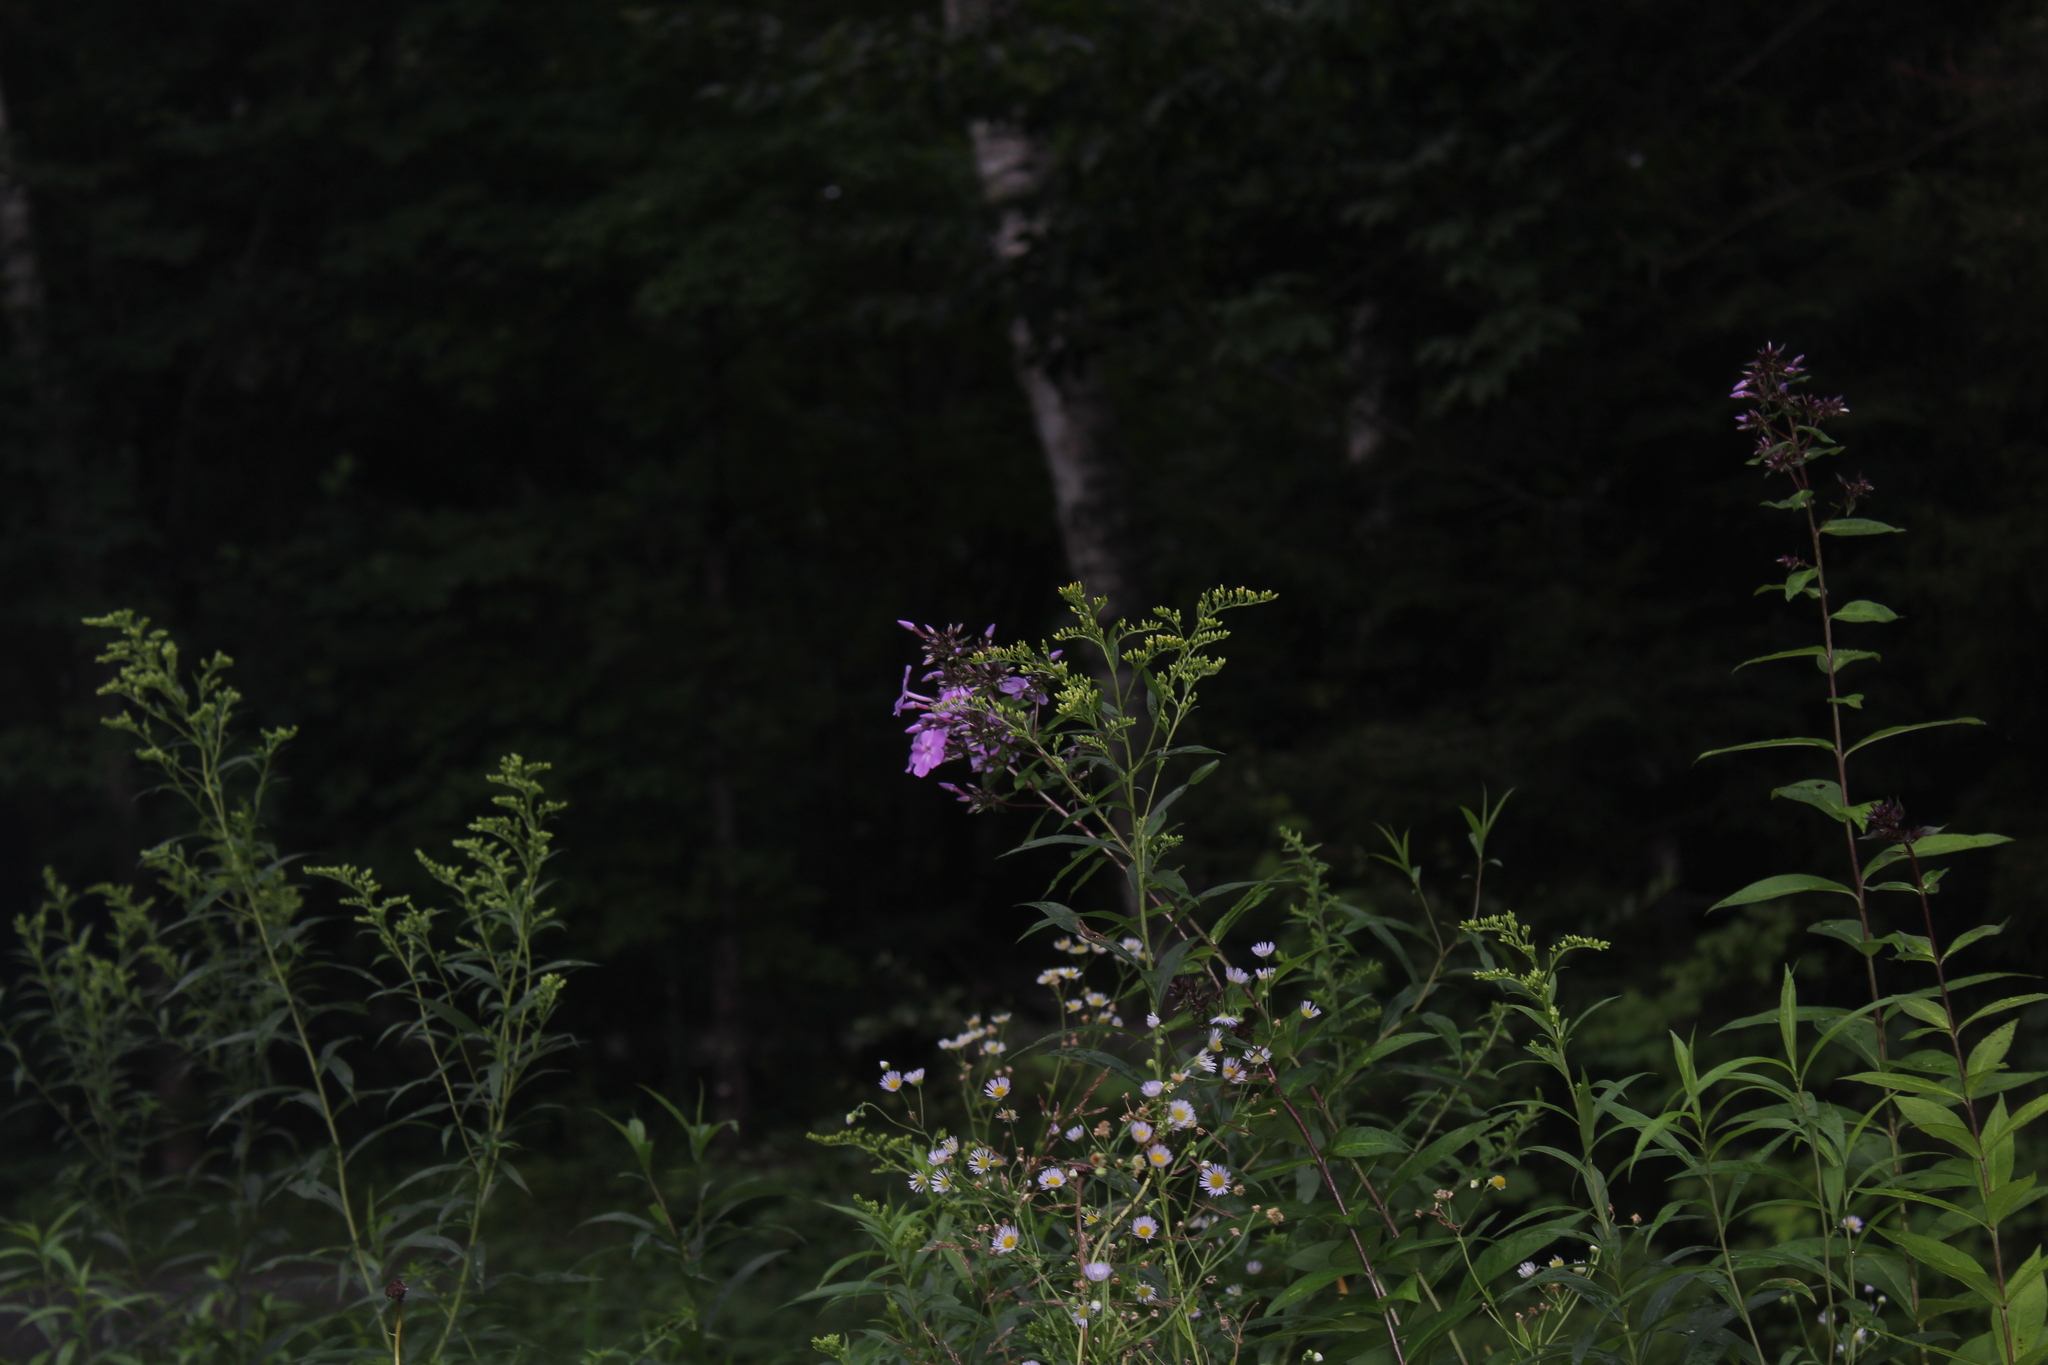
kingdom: Plantae
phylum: Tracheophyta
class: Magnoliopsida
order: Ericales
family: Polemoniaceae
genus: Phlox
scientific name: Phlox paniculata
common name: Fall phlox
